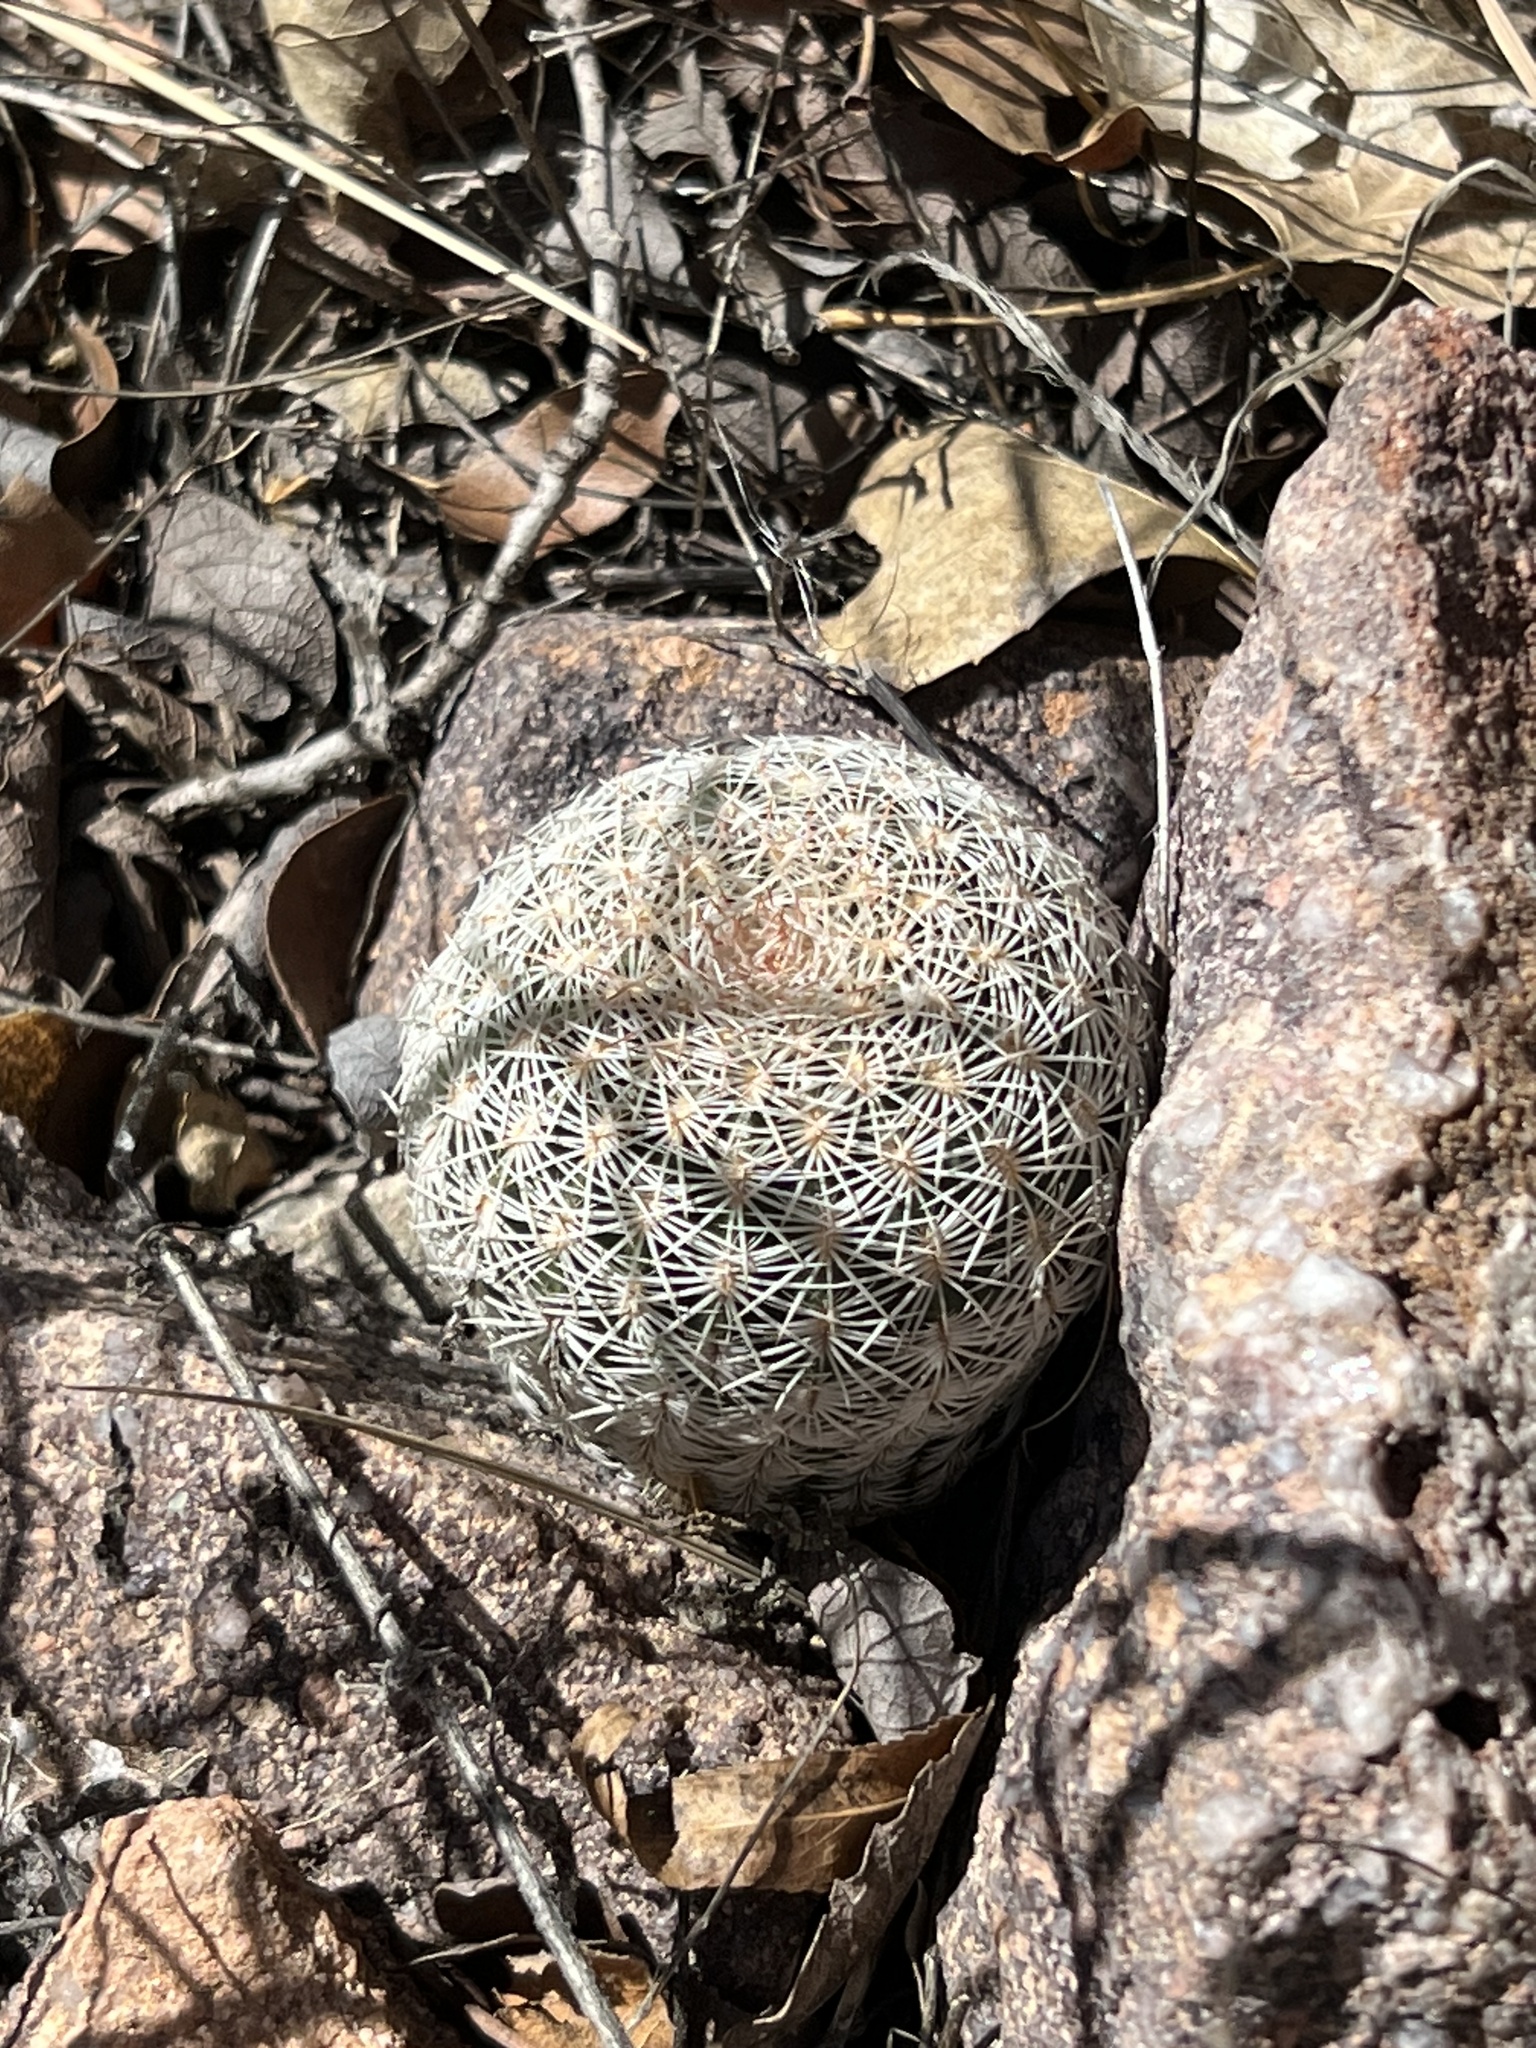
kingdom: Plantae
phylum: Tracheophyta
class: Magnoliopsida
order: Caryophyllales
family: Cactaceae
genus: Echinocereus
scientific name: Echinocereus rigidissimus
